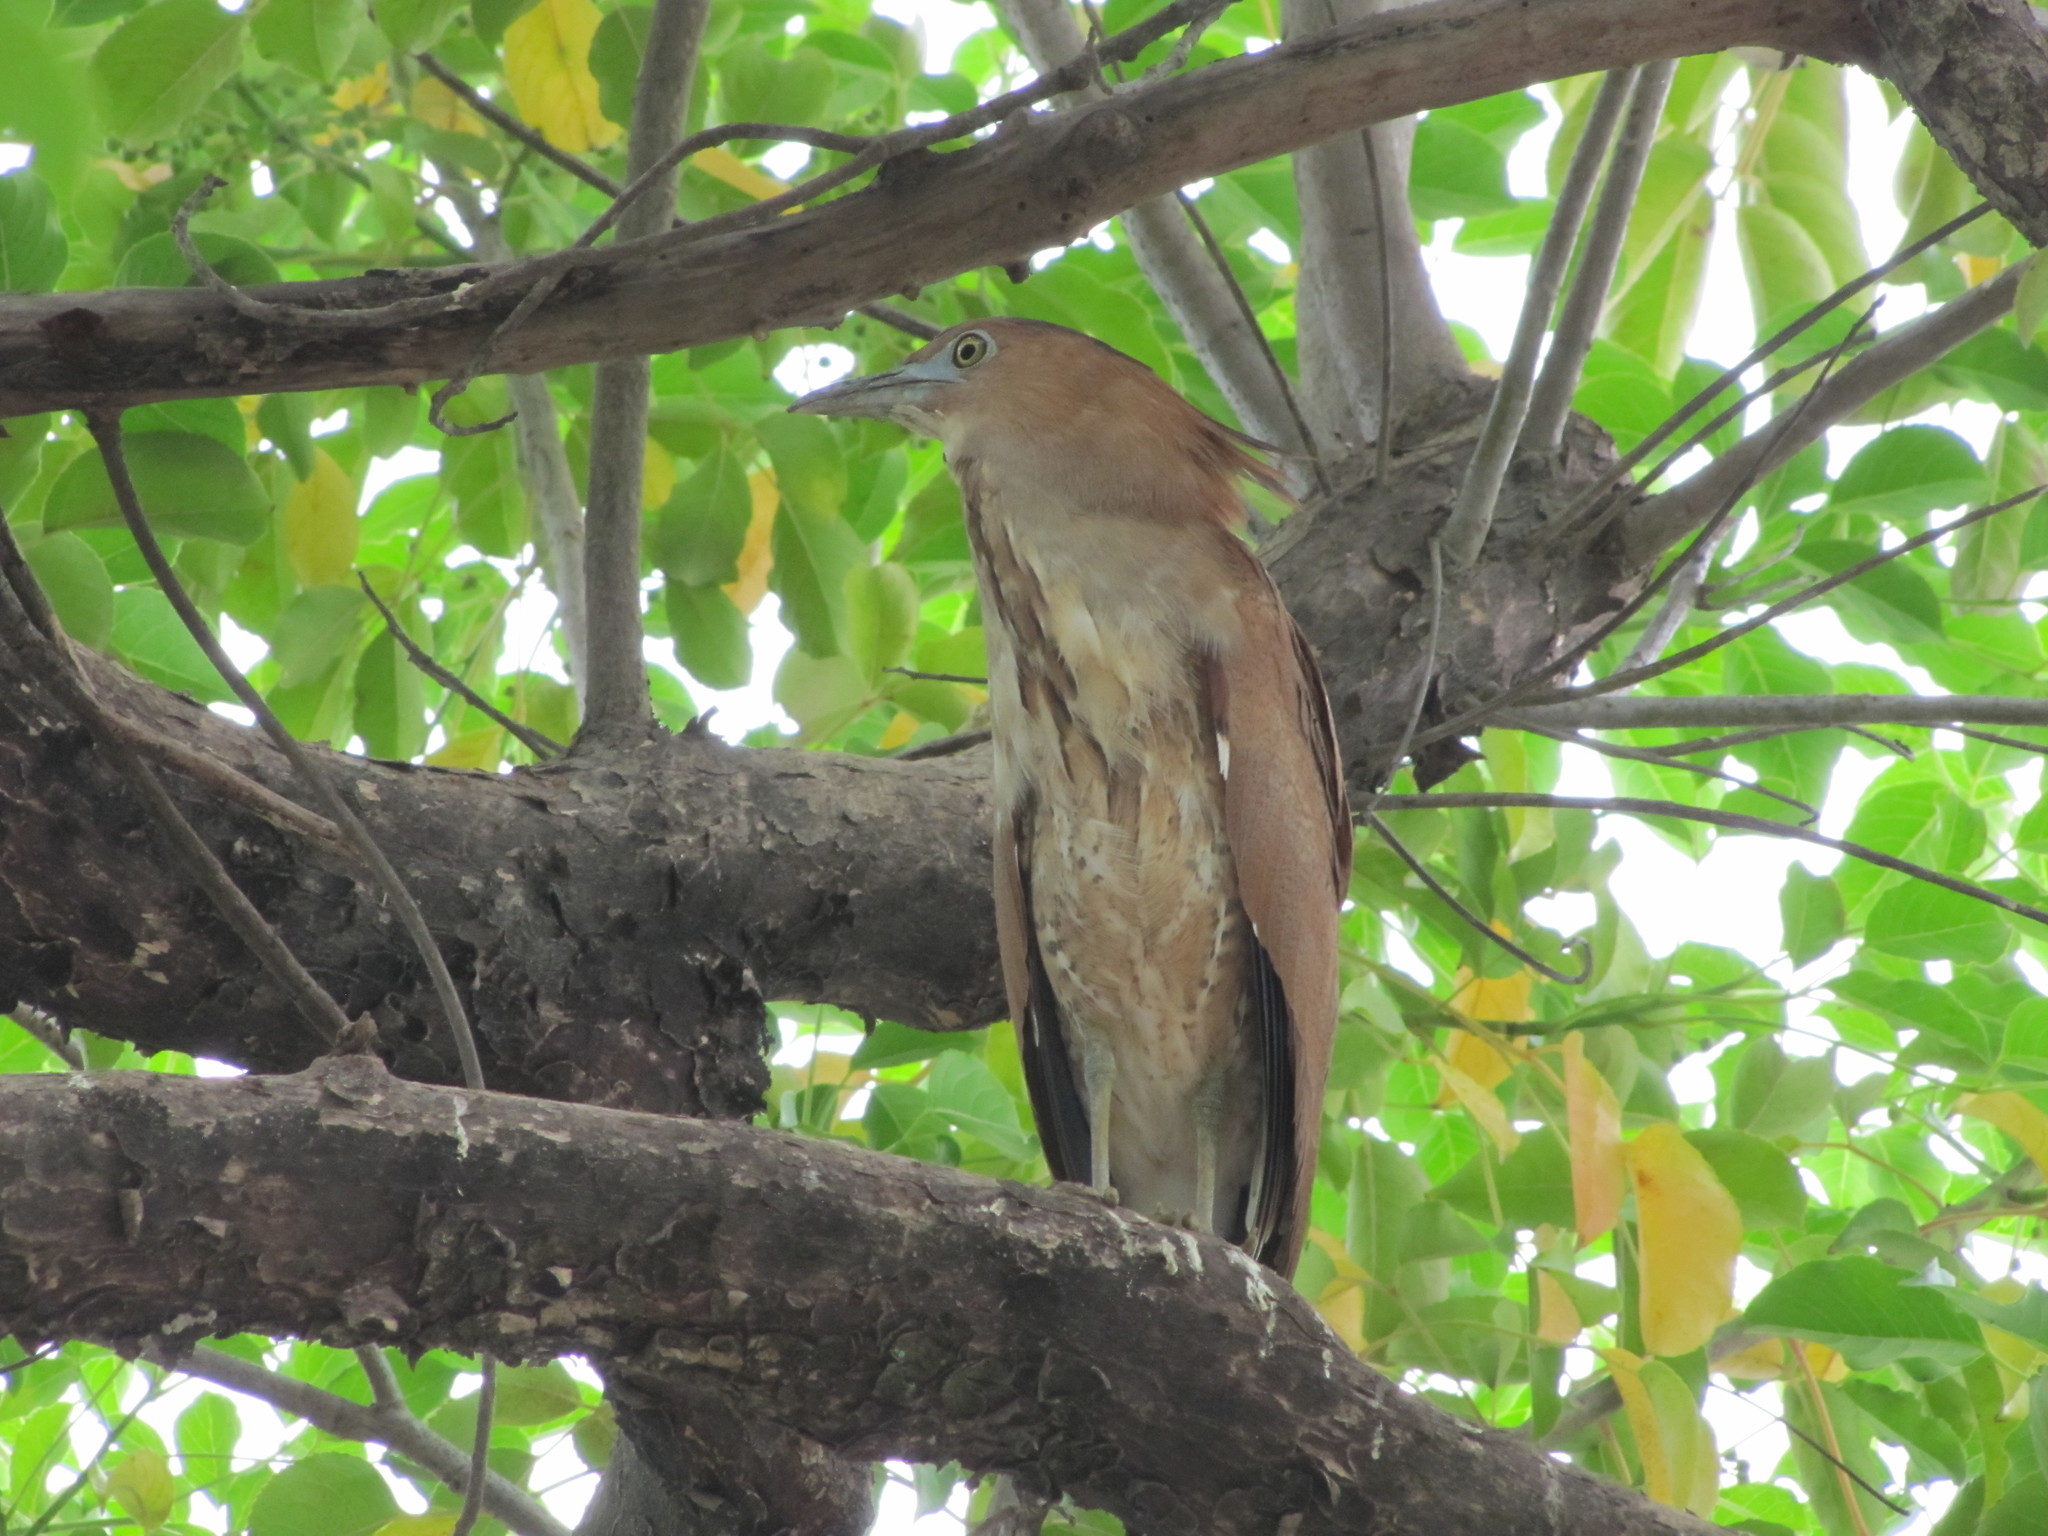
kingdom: Animalia
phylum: Chordata
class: Aves
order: Pelecaniformes
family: Ardeidae
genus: Gorsachius
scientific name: Gorsachius melanolophus
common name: Malayan night heron
